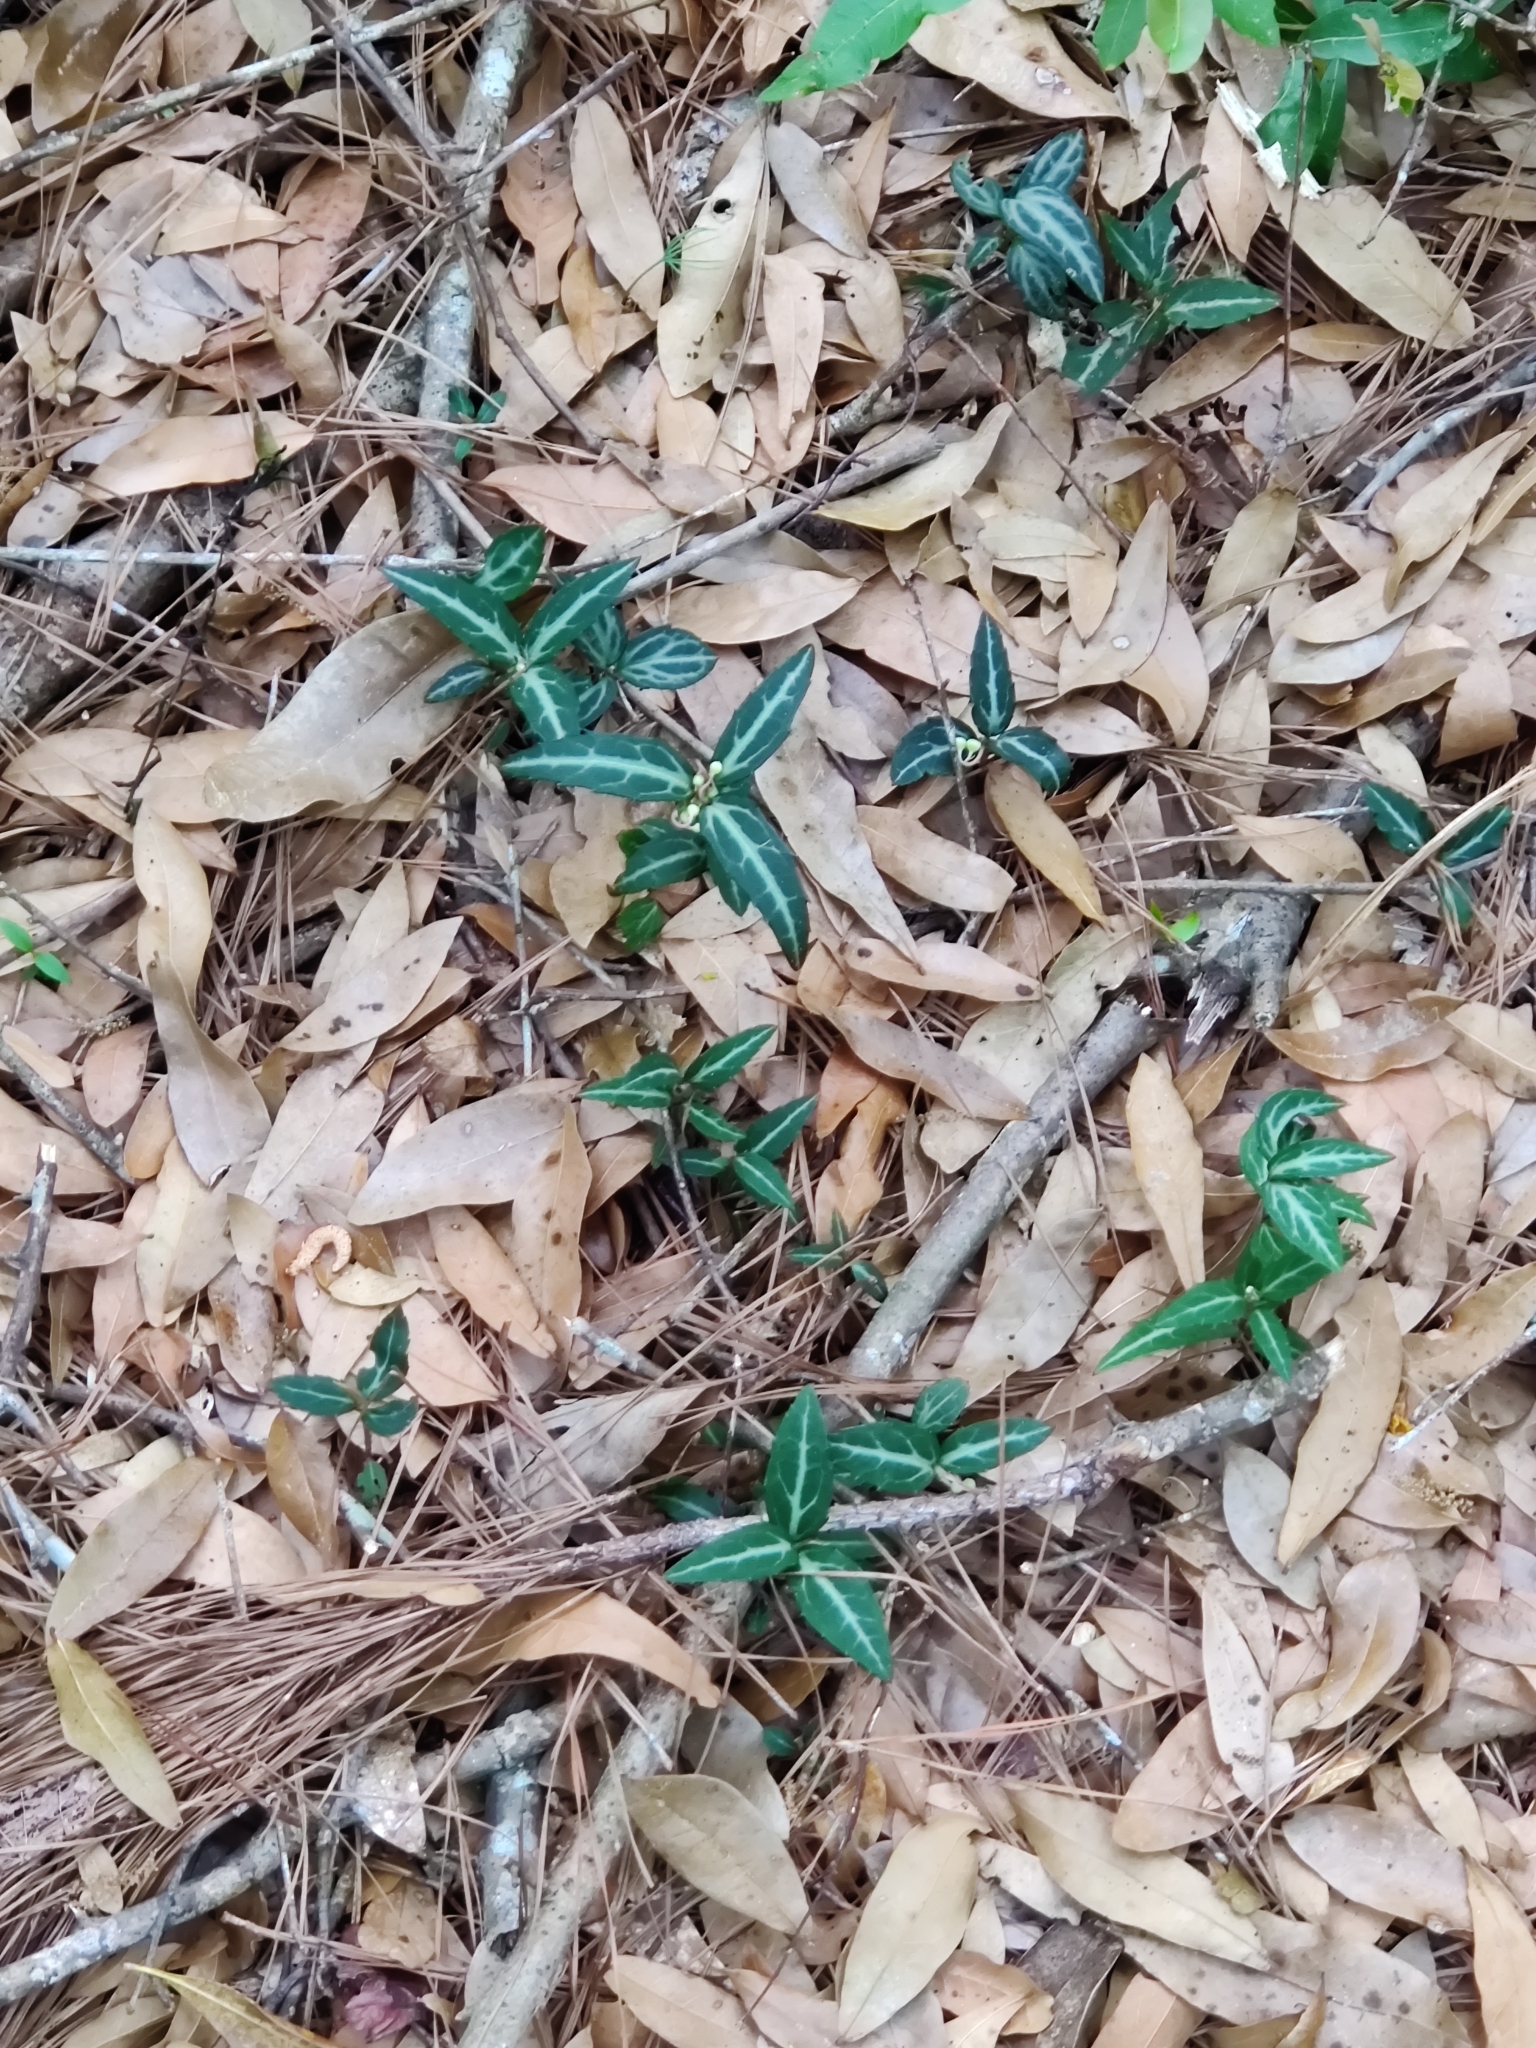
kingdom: Plantae
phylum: Tracheophyta
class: Magnoliopsida
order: Ericales
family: Ericaceae
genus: Chimaphila
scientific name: Chimaphila maculata
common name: Spotted pipsissewa
